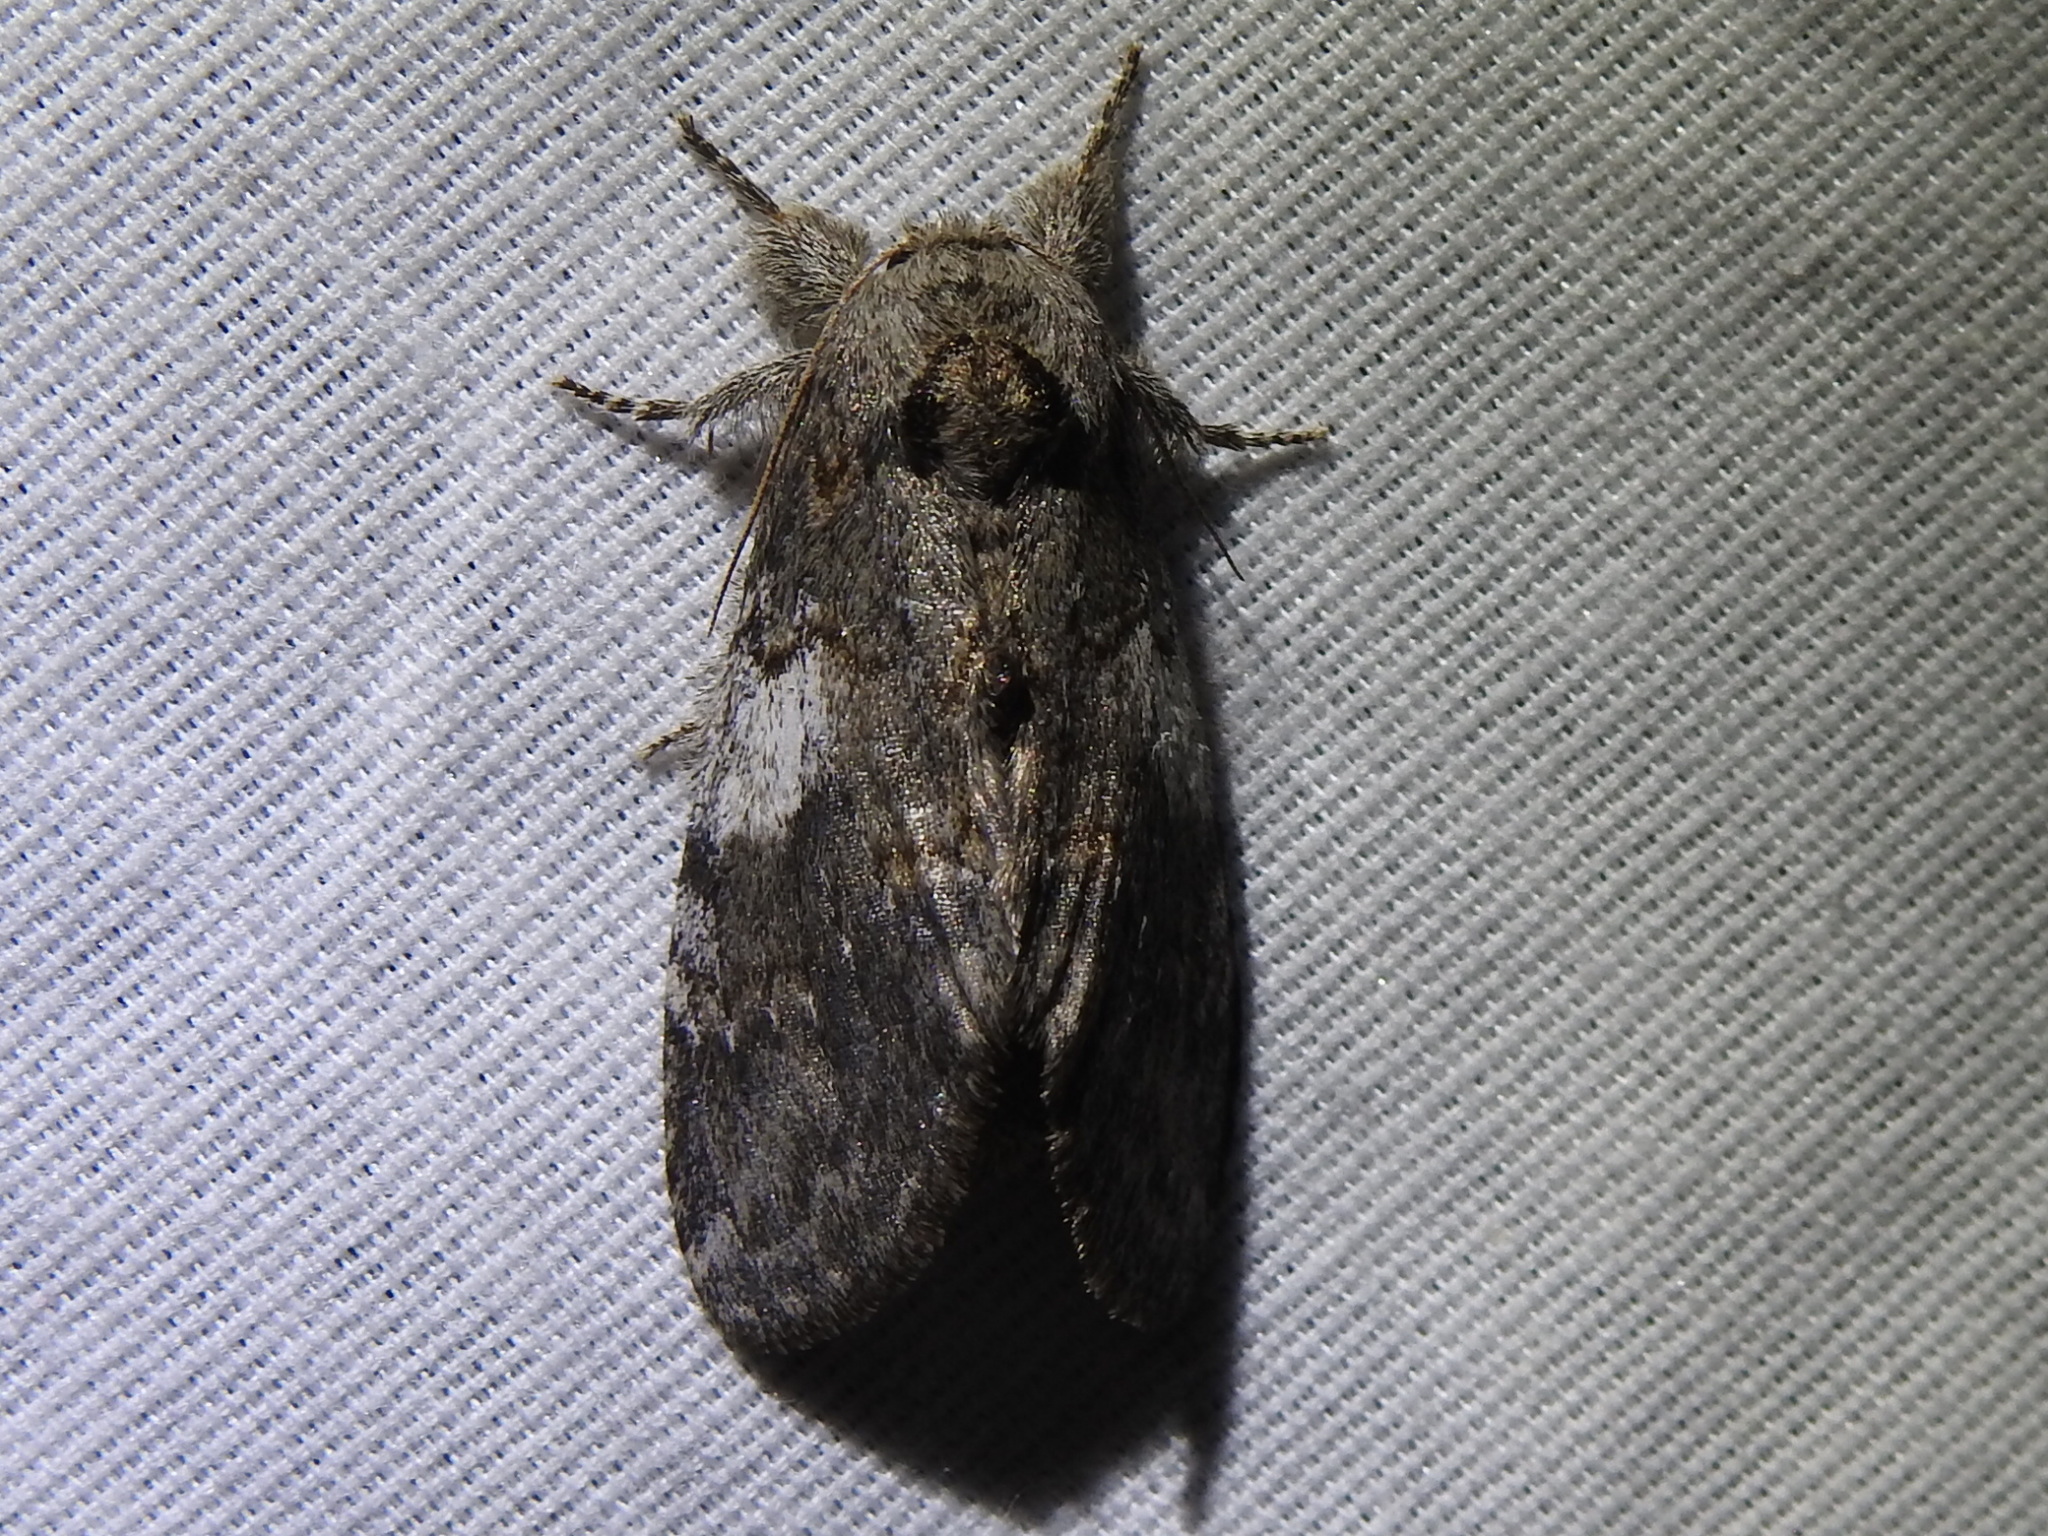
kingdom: Animalia
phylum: Arthropoda
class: Insecta
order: Lepidoptera
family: Notodontidae
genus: Peridea
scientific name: Peridea angulosa
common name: Angulose prominent
